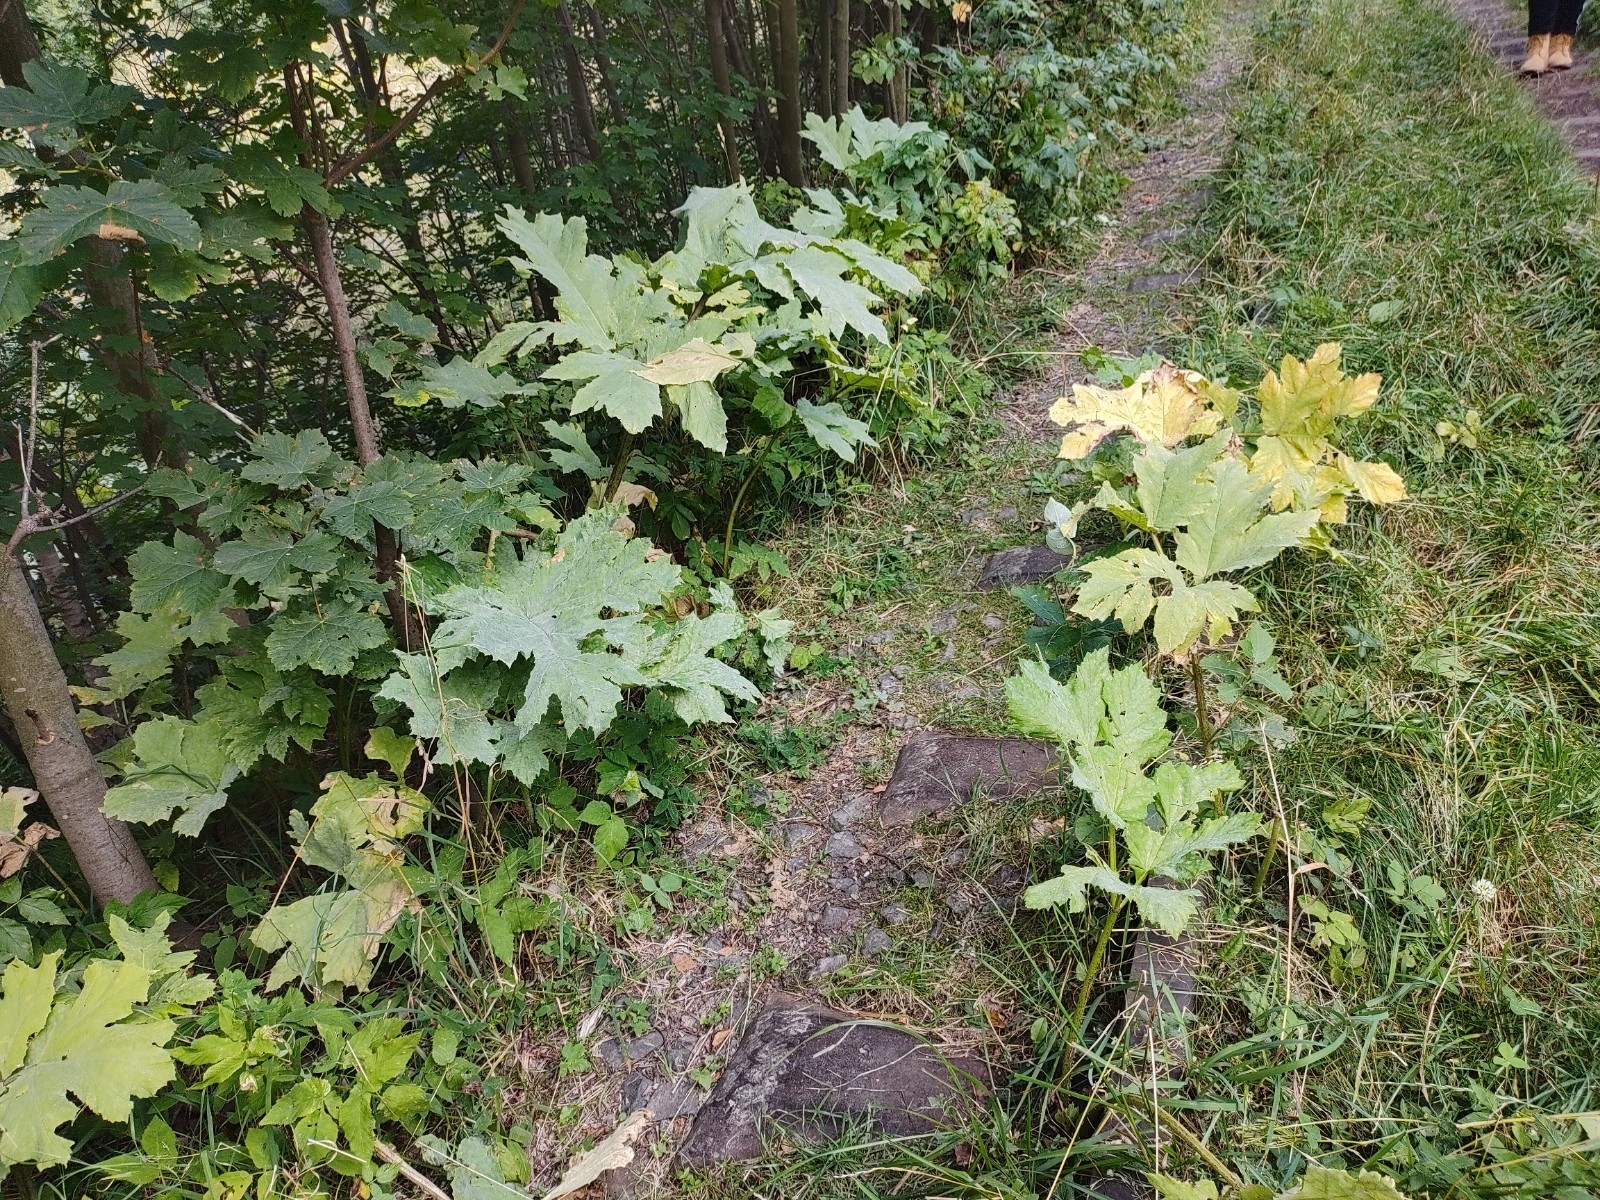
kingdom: Plantae
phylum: Tracheophyta
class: Magnoliopsida
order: Apiales
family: Apiaceae
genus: Heracleum
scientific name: Heracleum sosnowskyi
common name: Sosnowsky's hogweed
